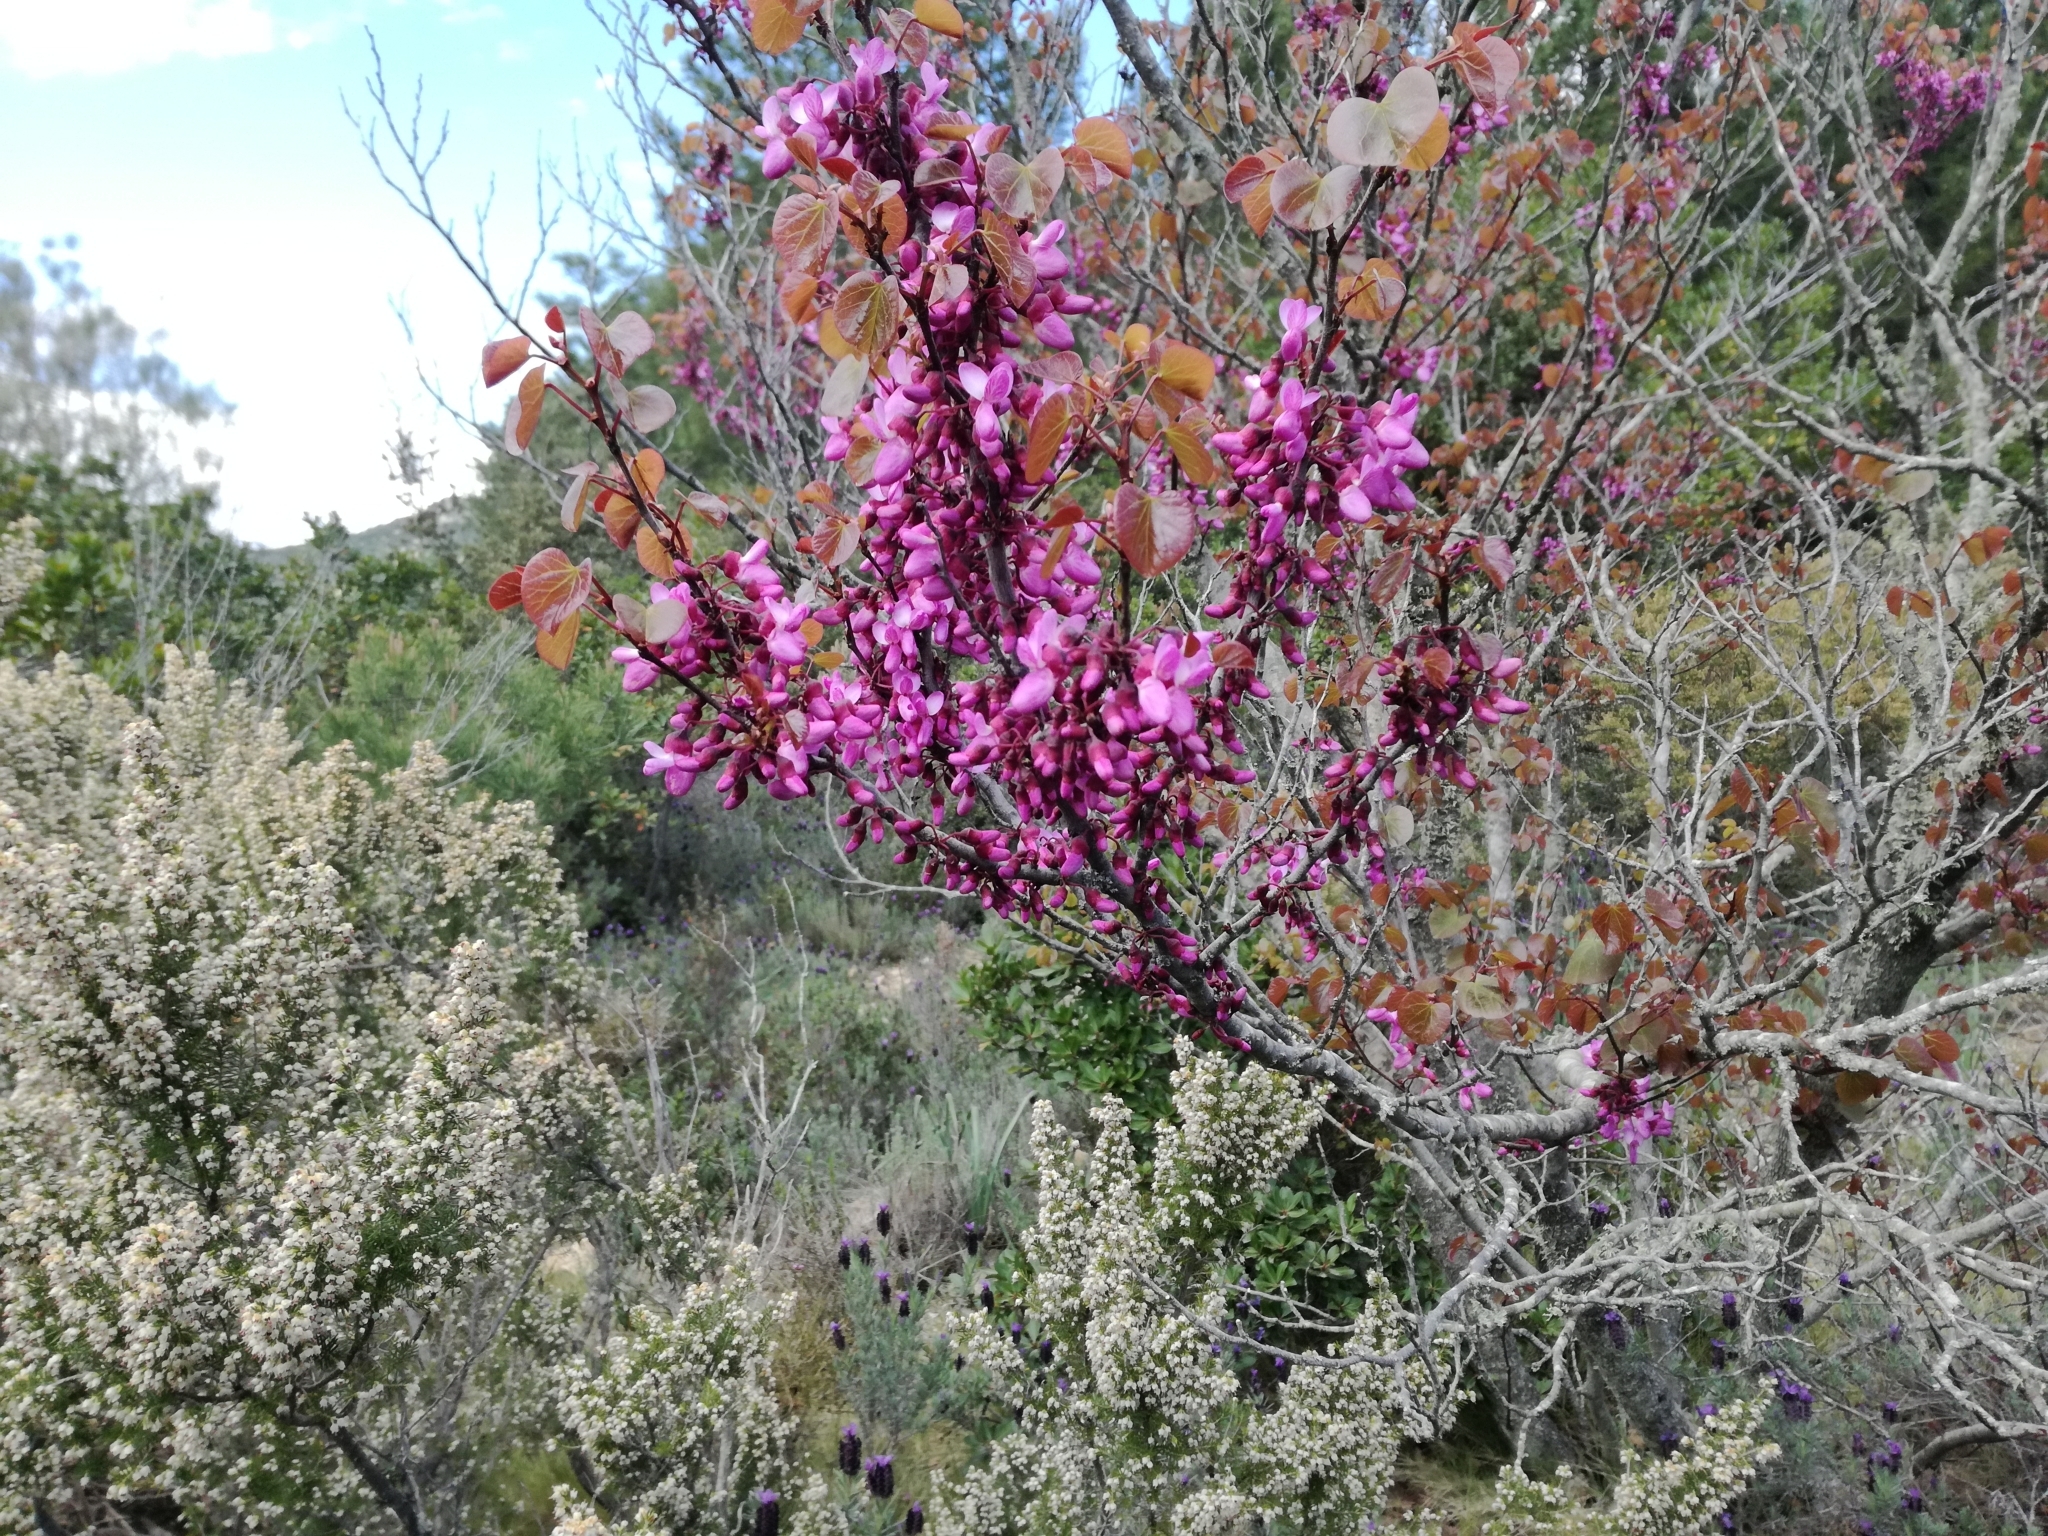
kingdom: Plantae
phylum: Tracheophyta
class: Magnoliopsida
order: Fabales
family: Fabaceae
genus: Cercis
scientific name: Cercis siliquastrum
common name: Judas tree
